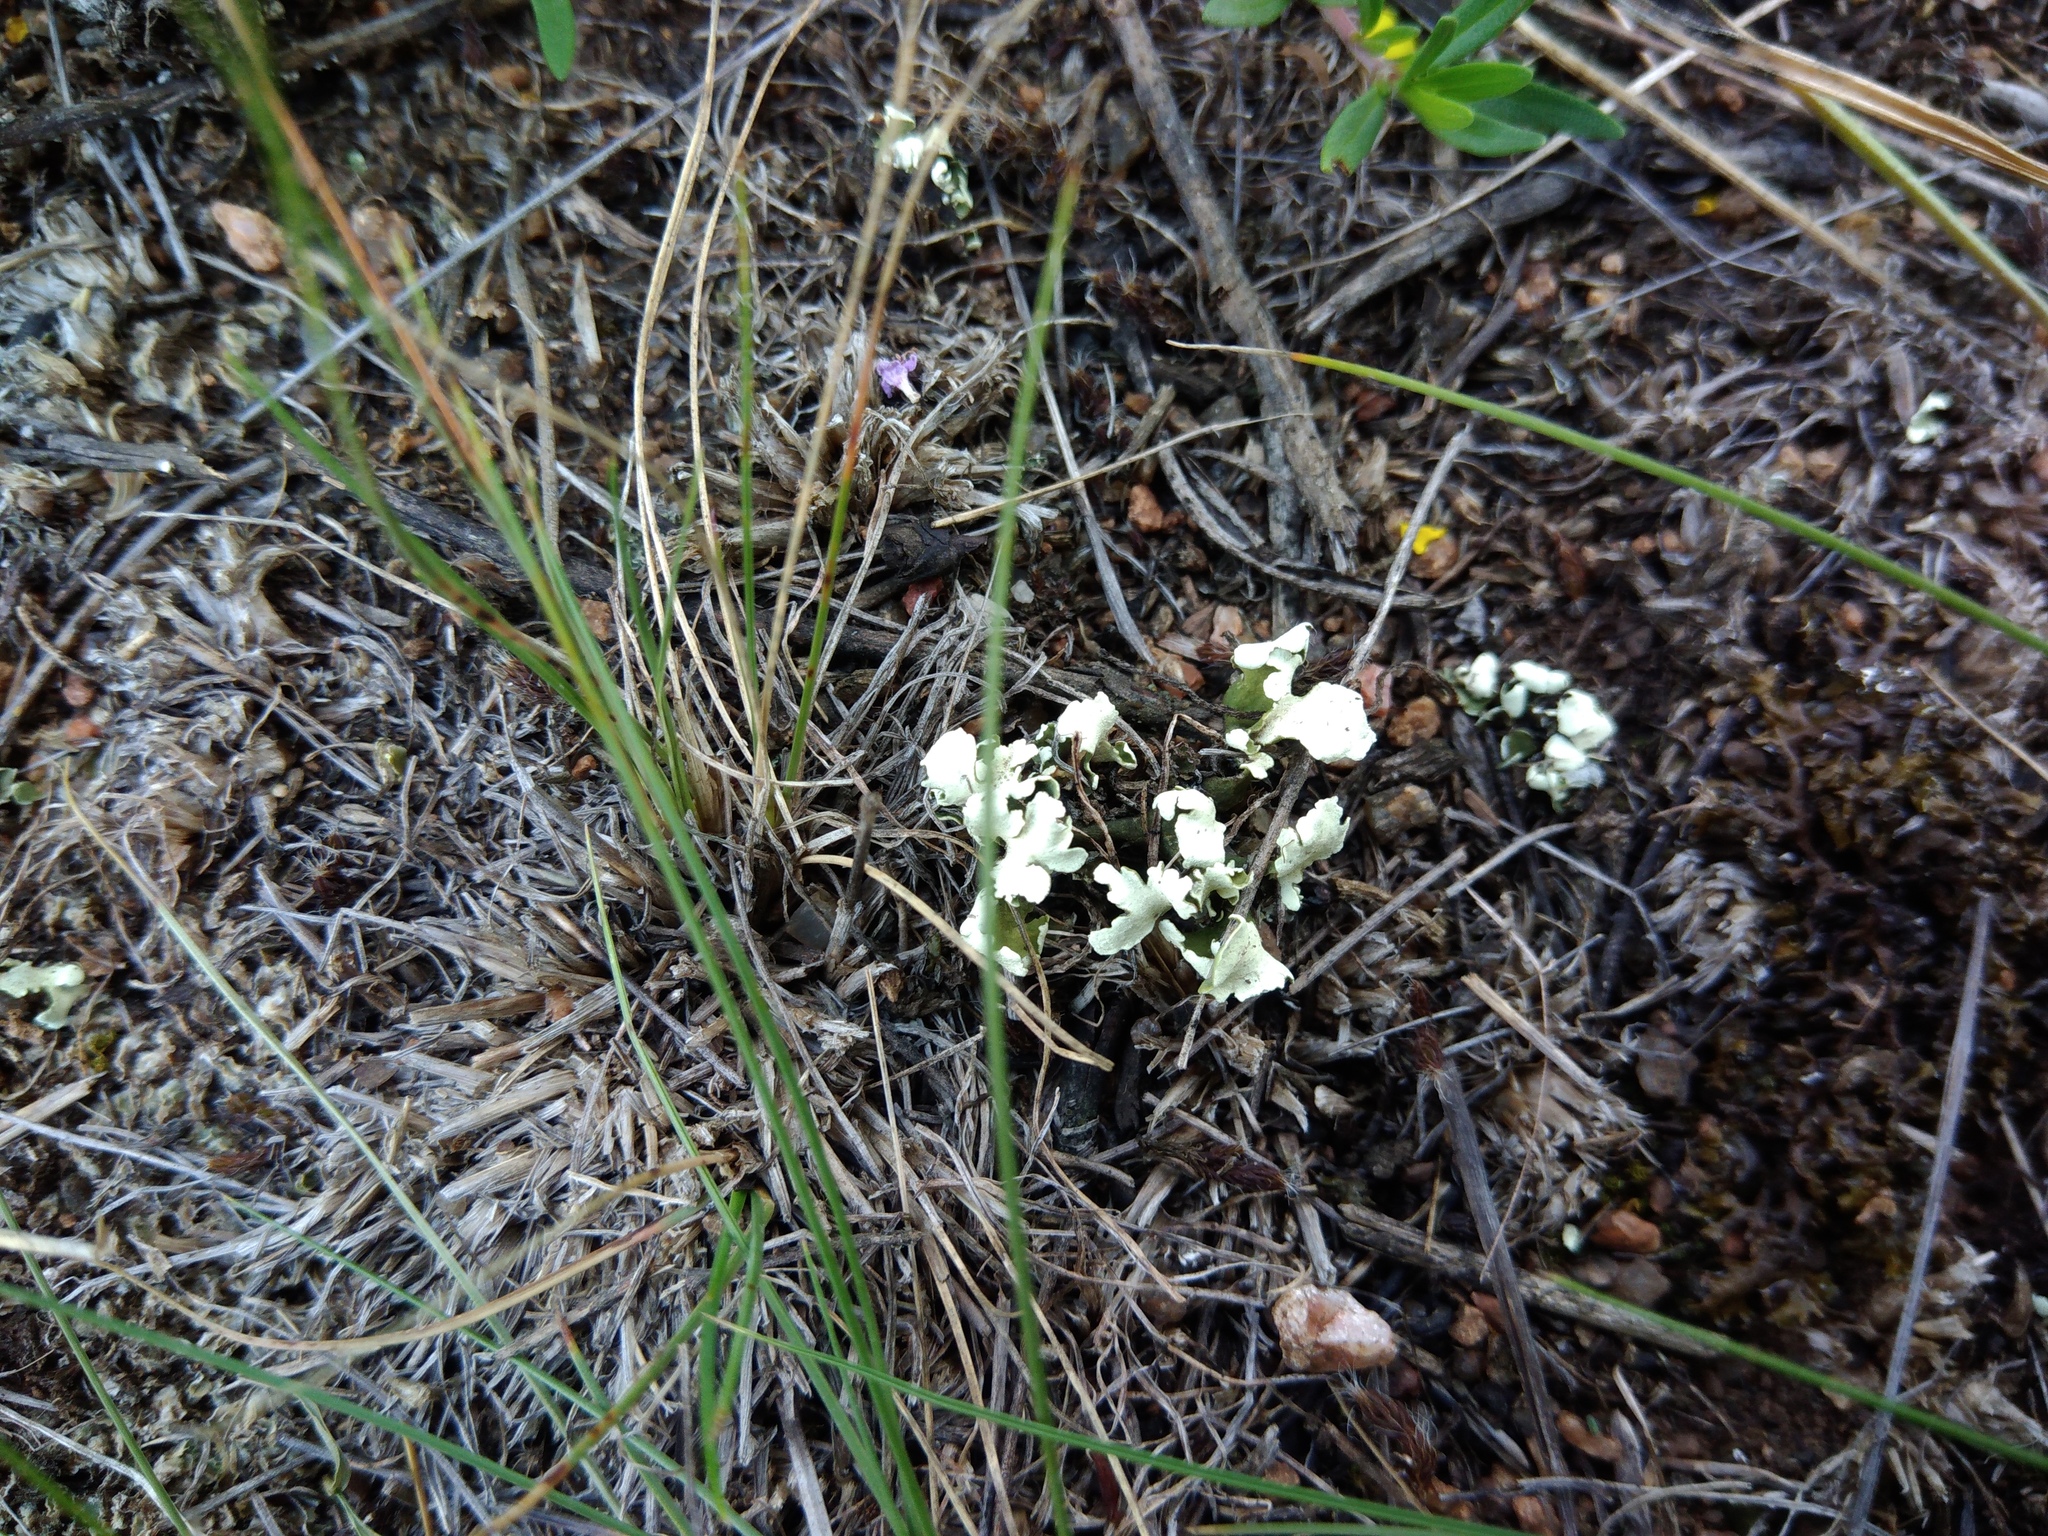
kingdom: Fungi
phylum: Ascomycota
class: Lecanoromycetes
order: Lecanorales
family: Cladoniaceae
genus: Cladonia
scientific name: Cladonia foliacea
